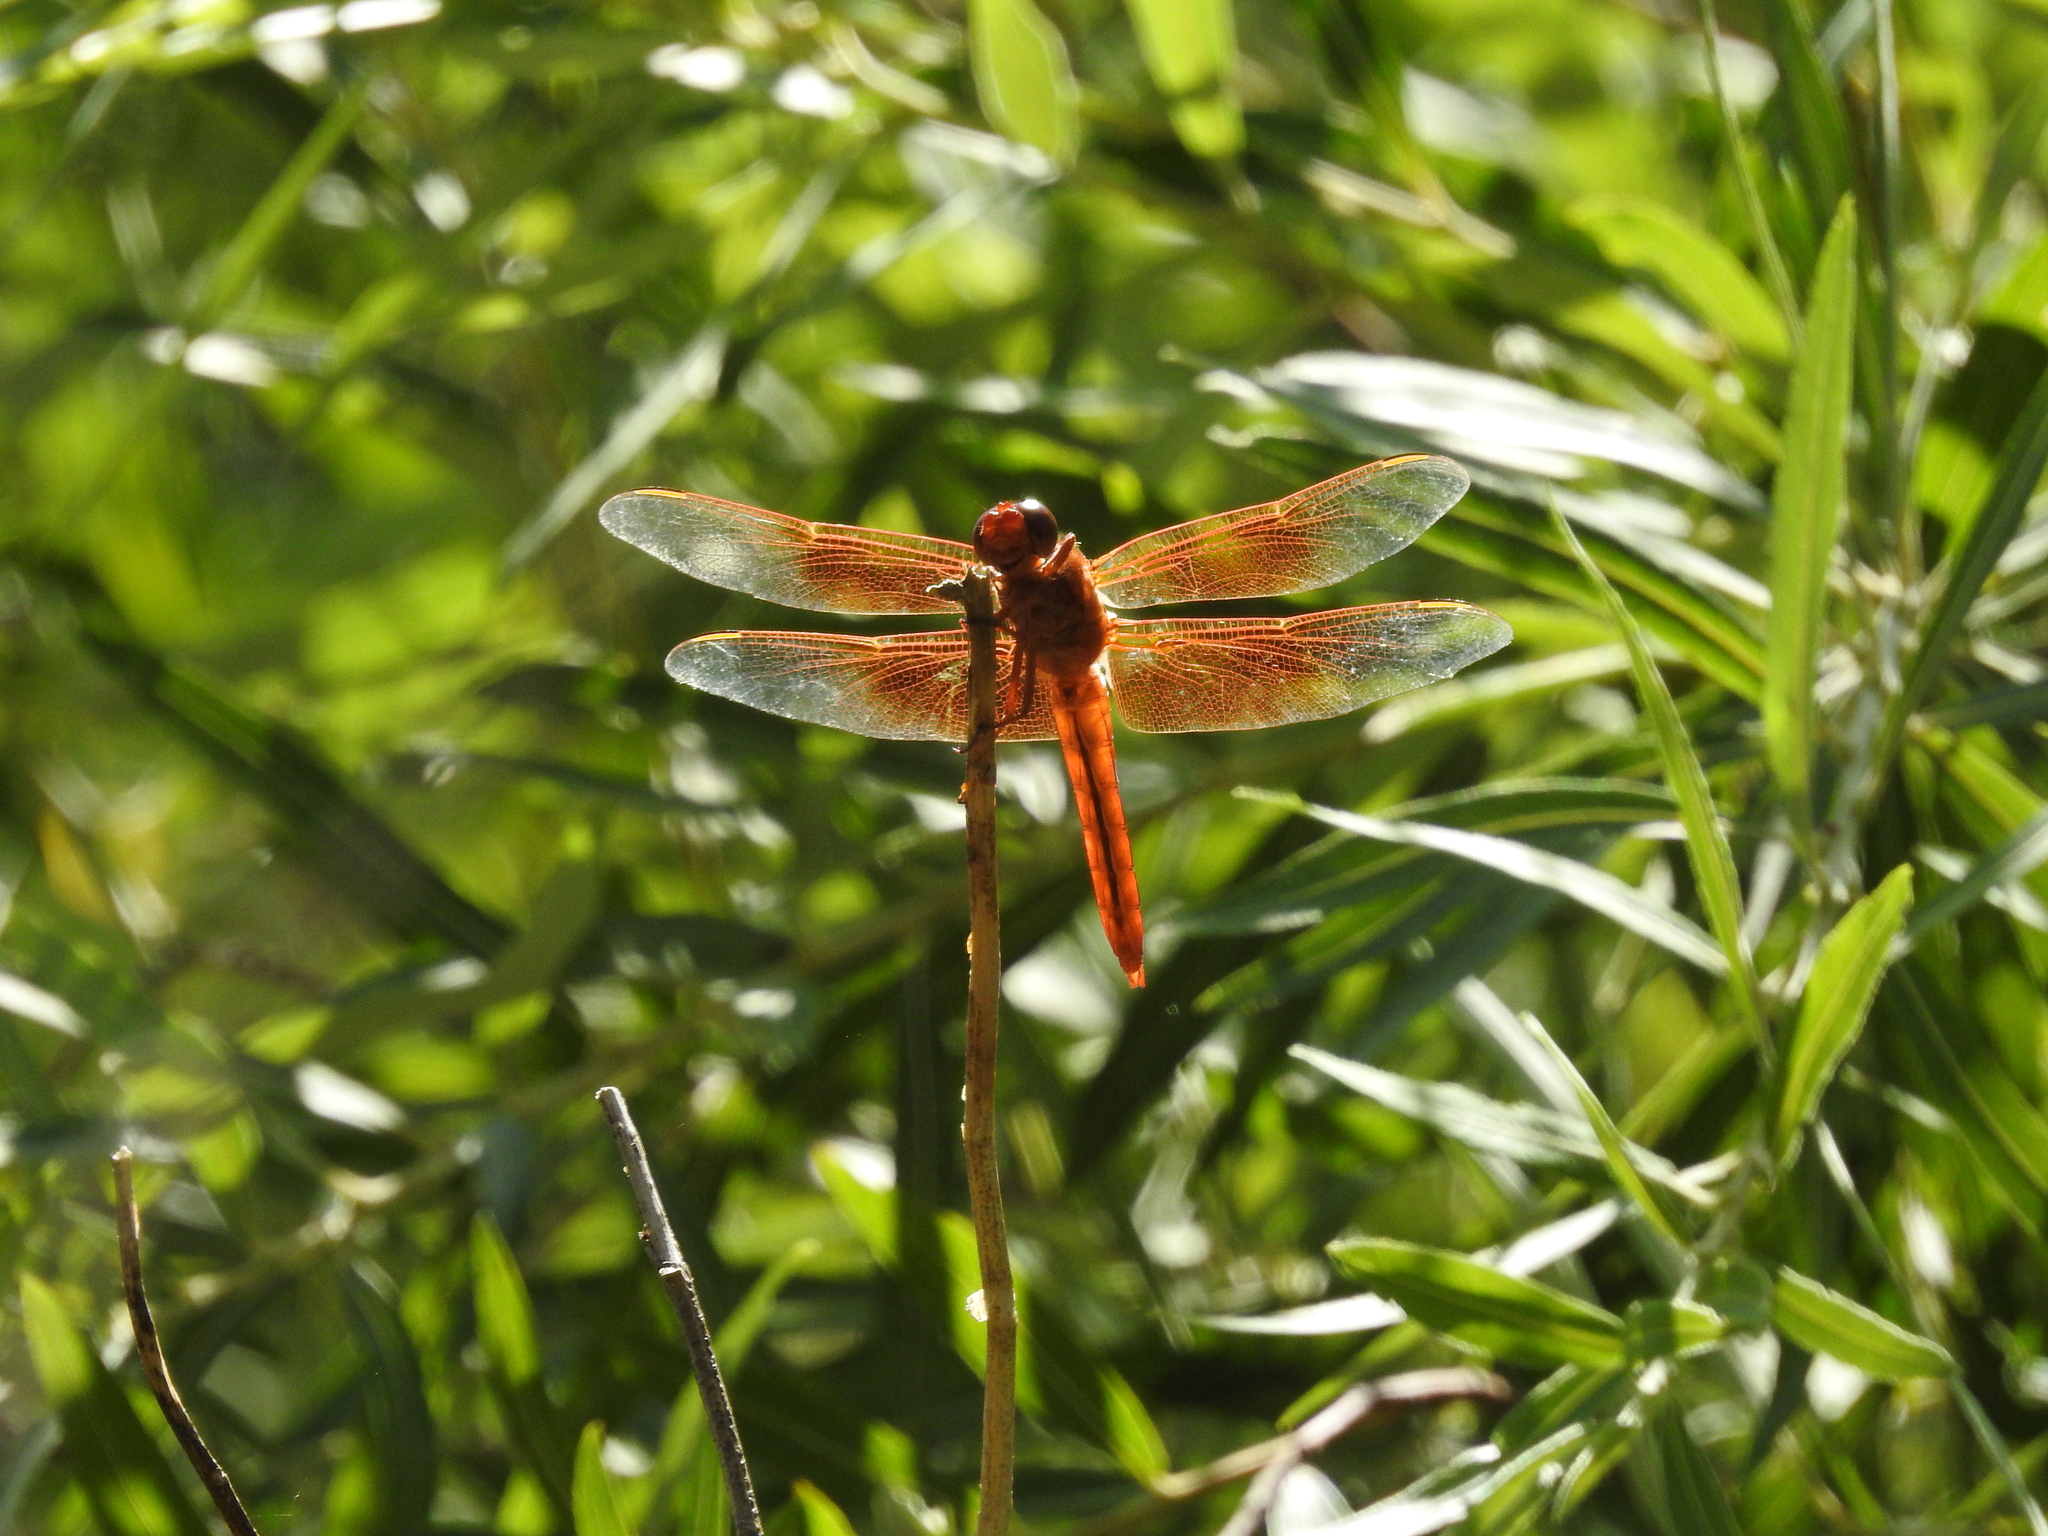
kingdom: Animalia
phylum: Arthropoda
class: Insecta
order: Odonata
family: Libellulidae
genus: Libellula
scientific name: Libellula saturata
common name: Flame skimmer
